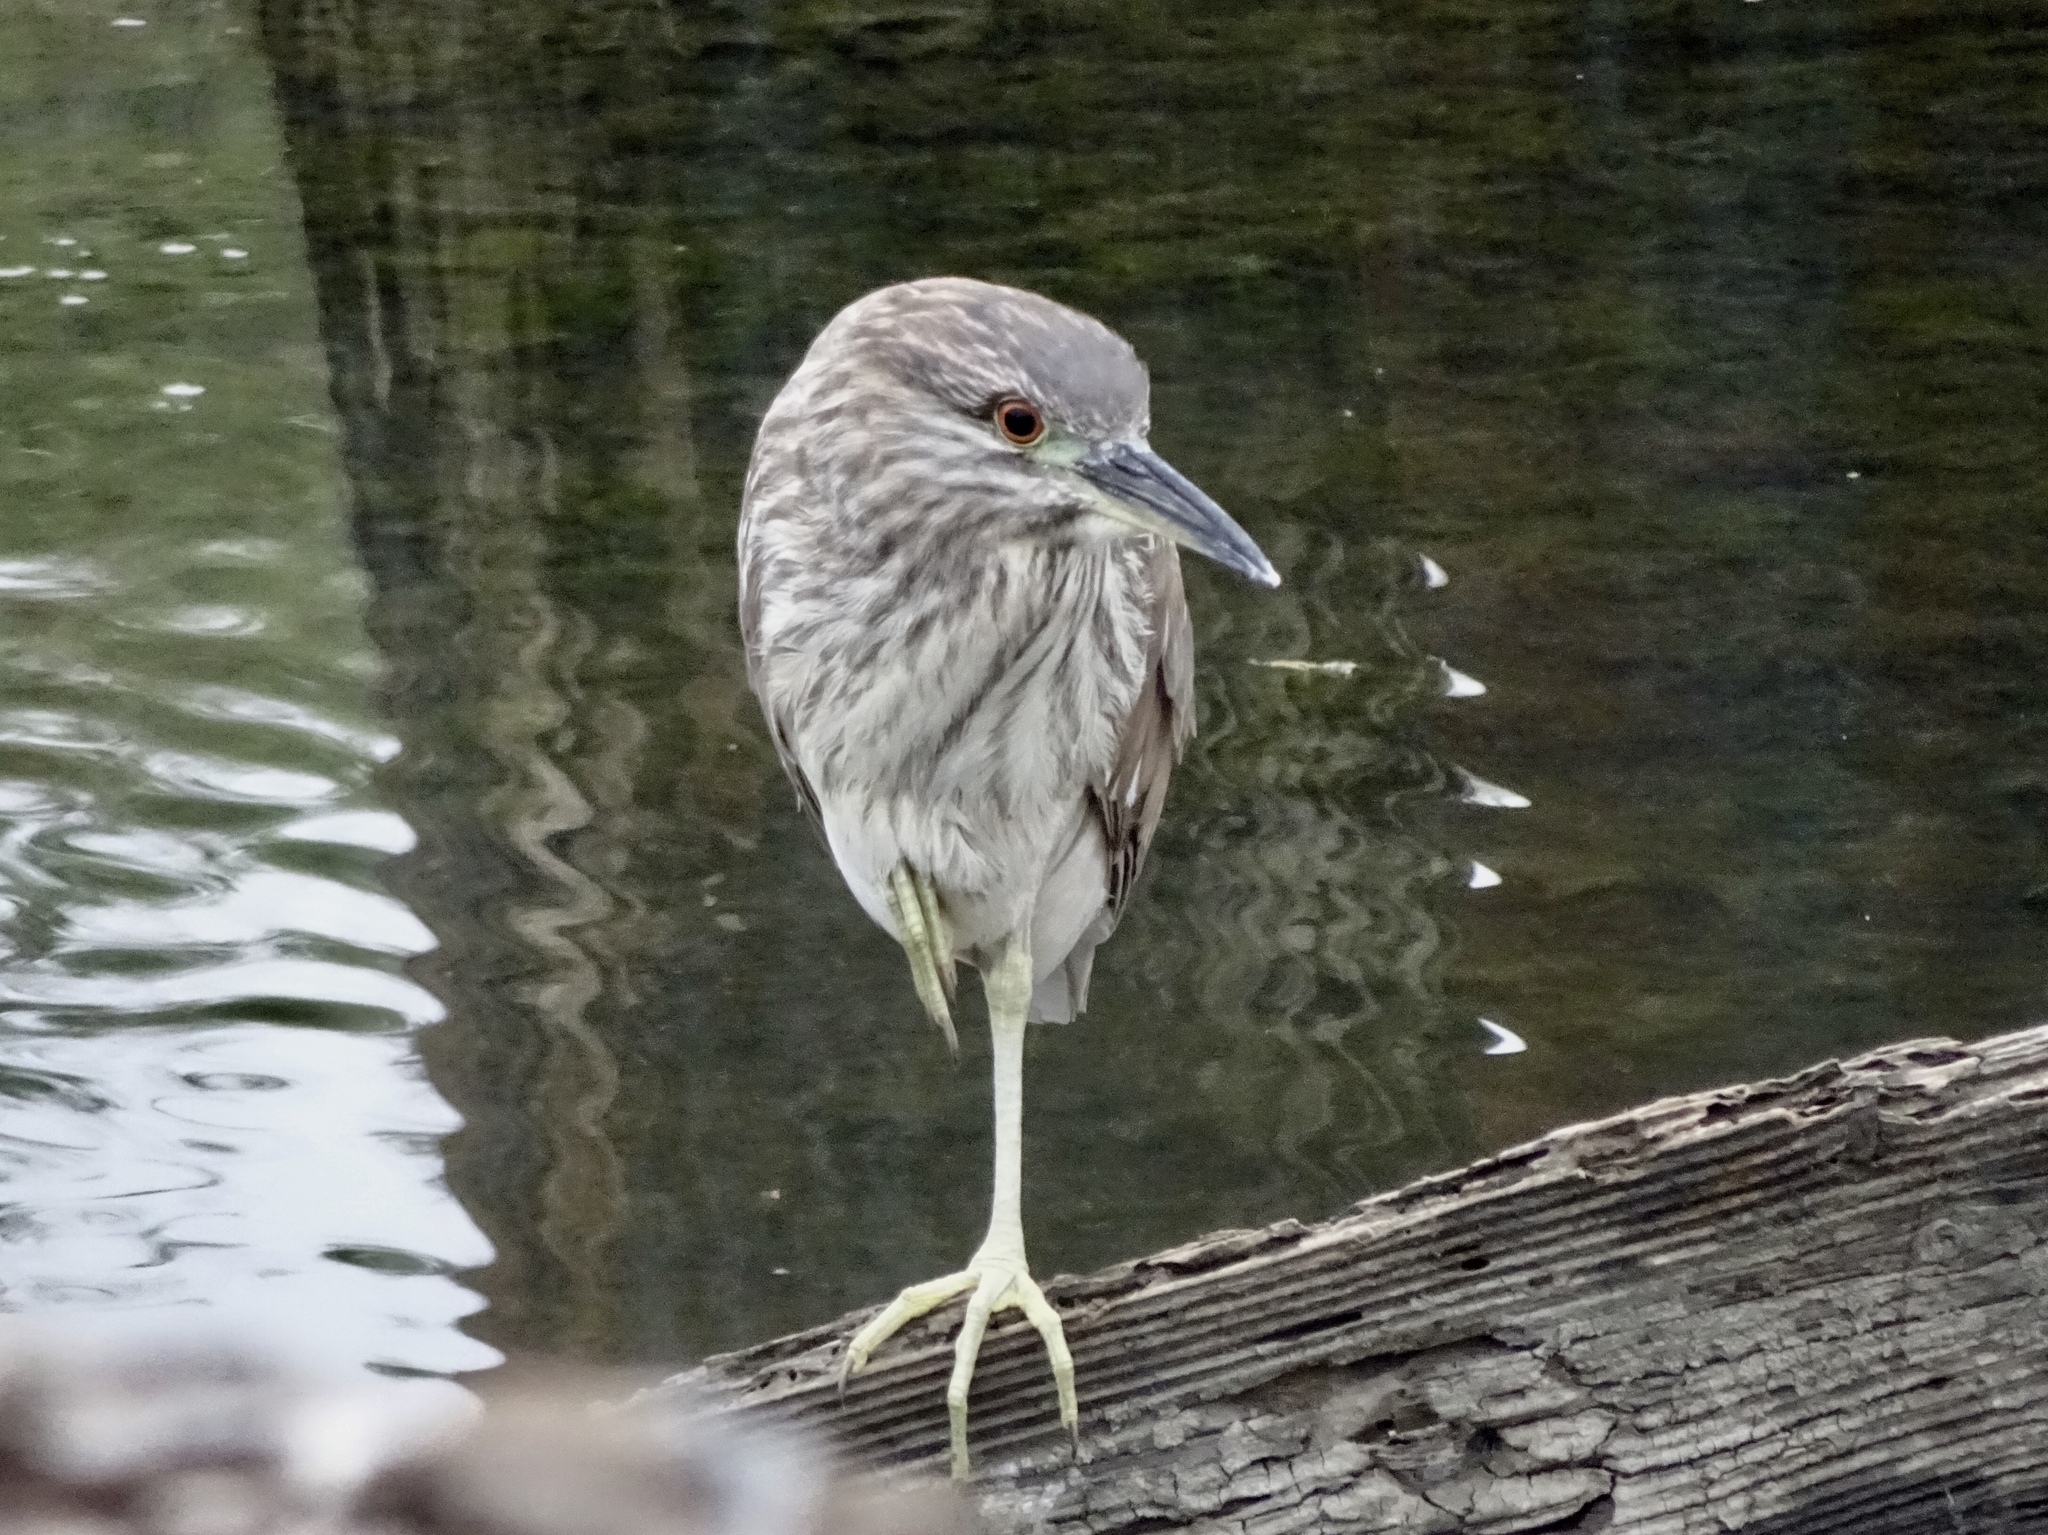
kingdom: Animalia
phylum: Chordata
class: Aves
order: Pelecaniformes
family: Ardeidae
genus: Nycticorax
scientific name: Nycticorax nycticorax
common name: Black-crowned night heron
